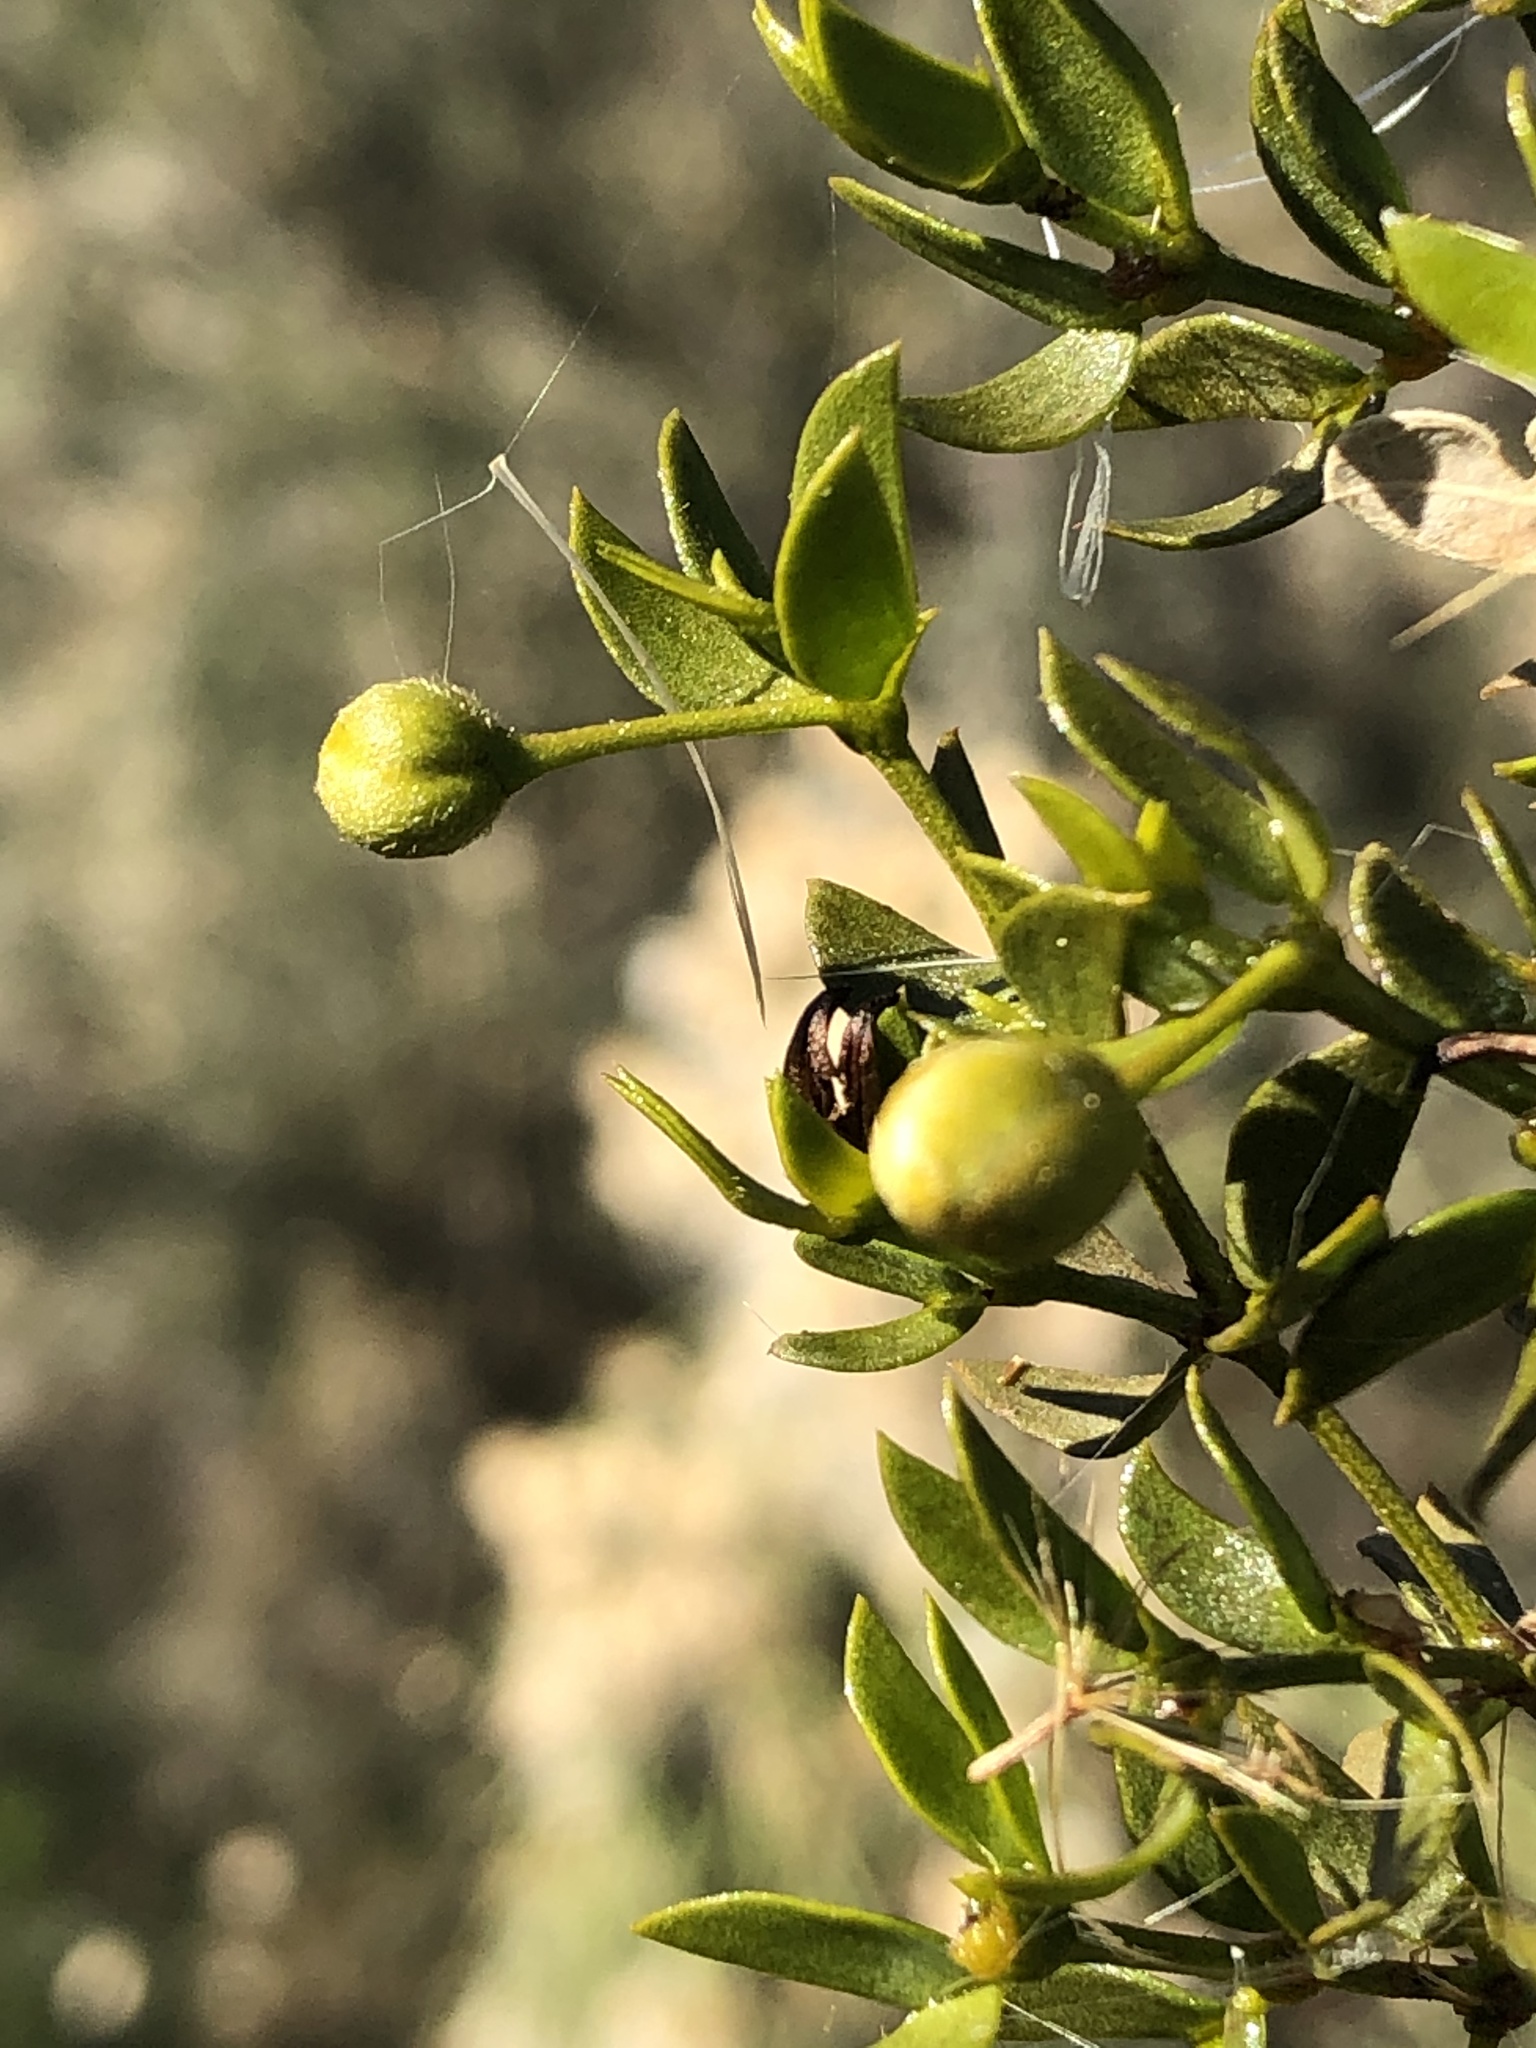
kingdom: Animalia
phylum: Arthropoda
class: Insecta
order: Diptera
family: Cecidomyiidae
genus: Asphondylia
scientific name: Asphondylia silicula
